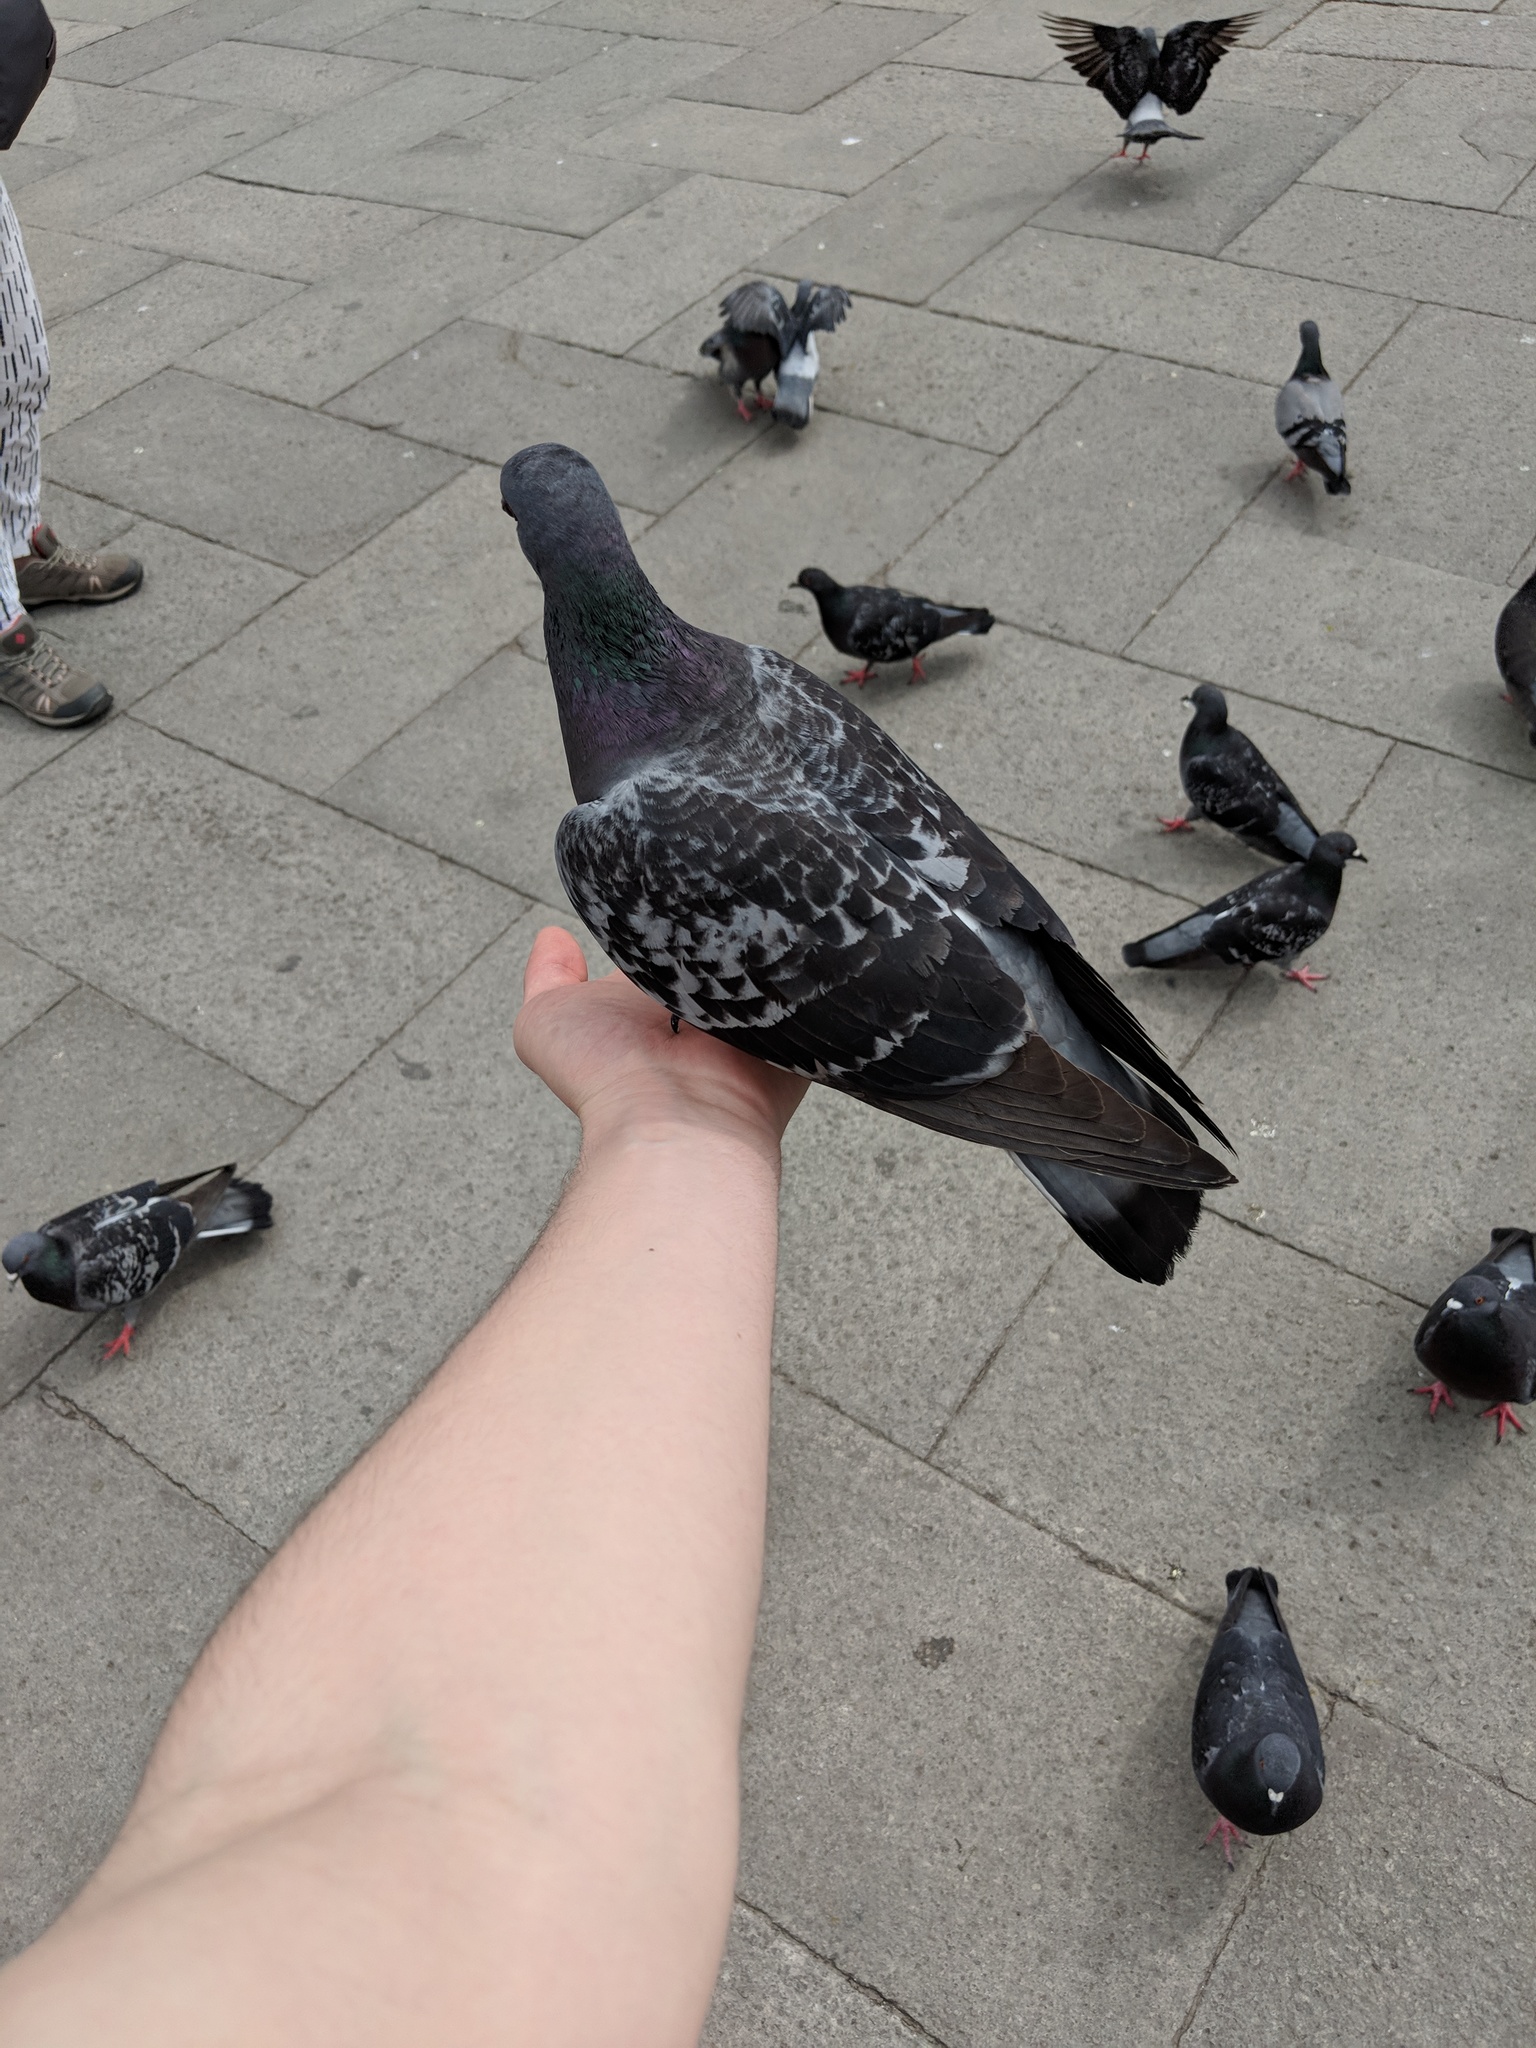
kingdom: Animalia
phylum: Chordata
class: Aves
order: Columbiformes
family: Columbidae
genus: Columba
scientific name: Columba livia
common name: Rock pigeon
